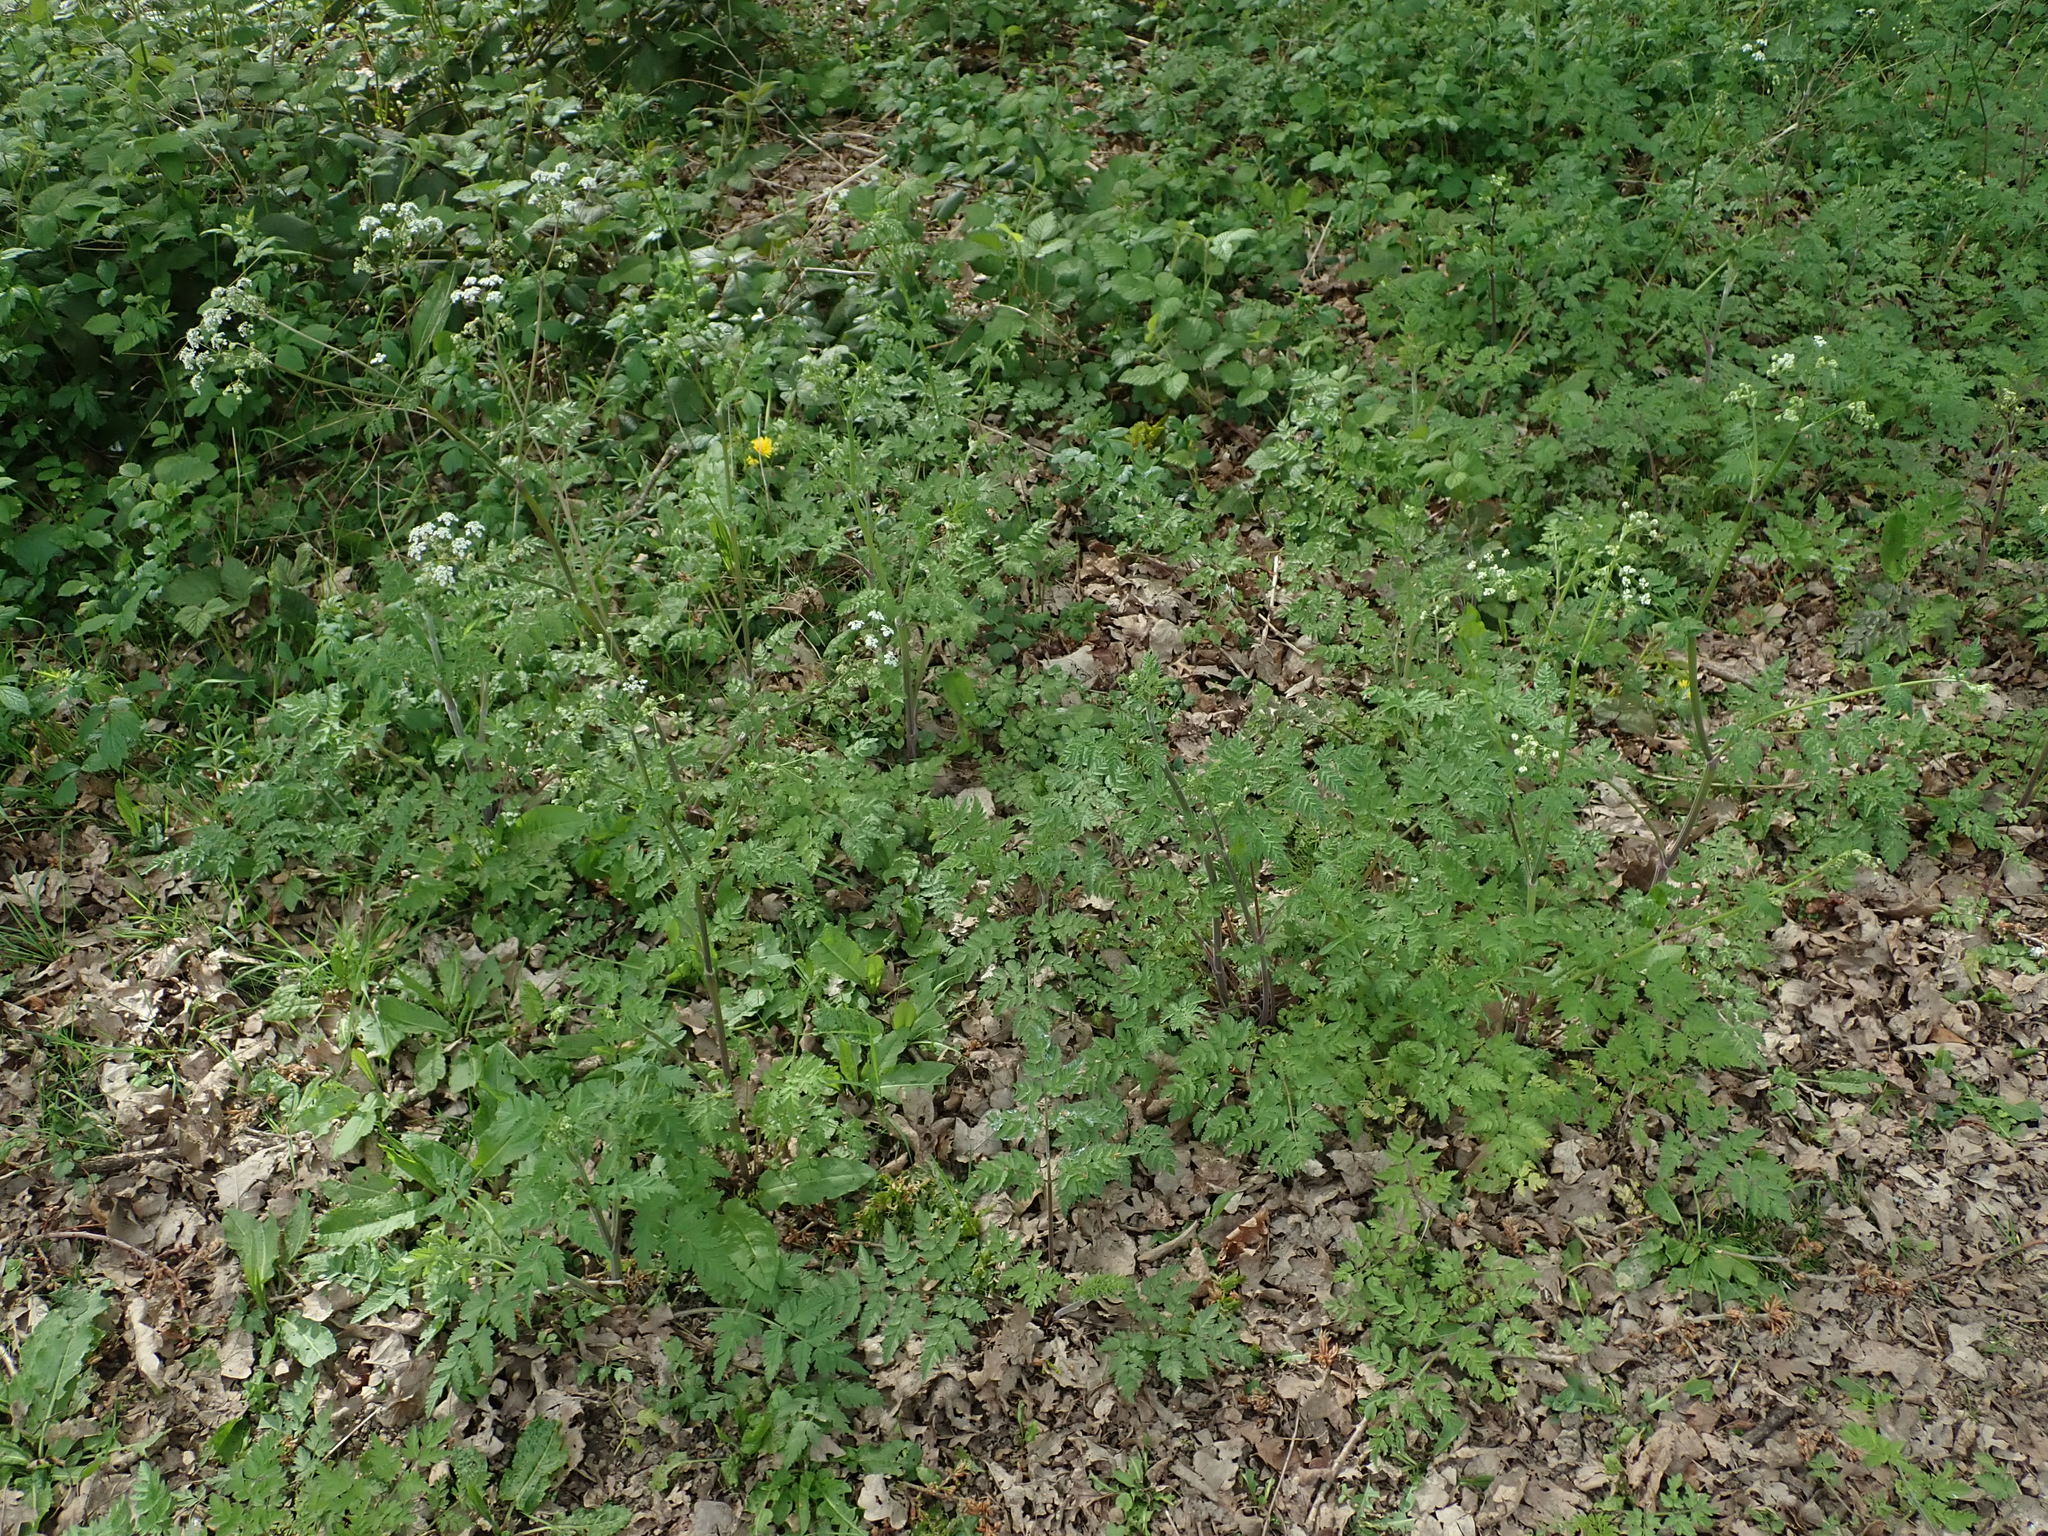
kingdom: Plantae
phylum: Tracheophyta
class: Magnoliopsida
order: Apiales
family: Apiaceae
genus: Anthriscus
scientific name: Anthriscus sylvestris
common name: Cow parsley
